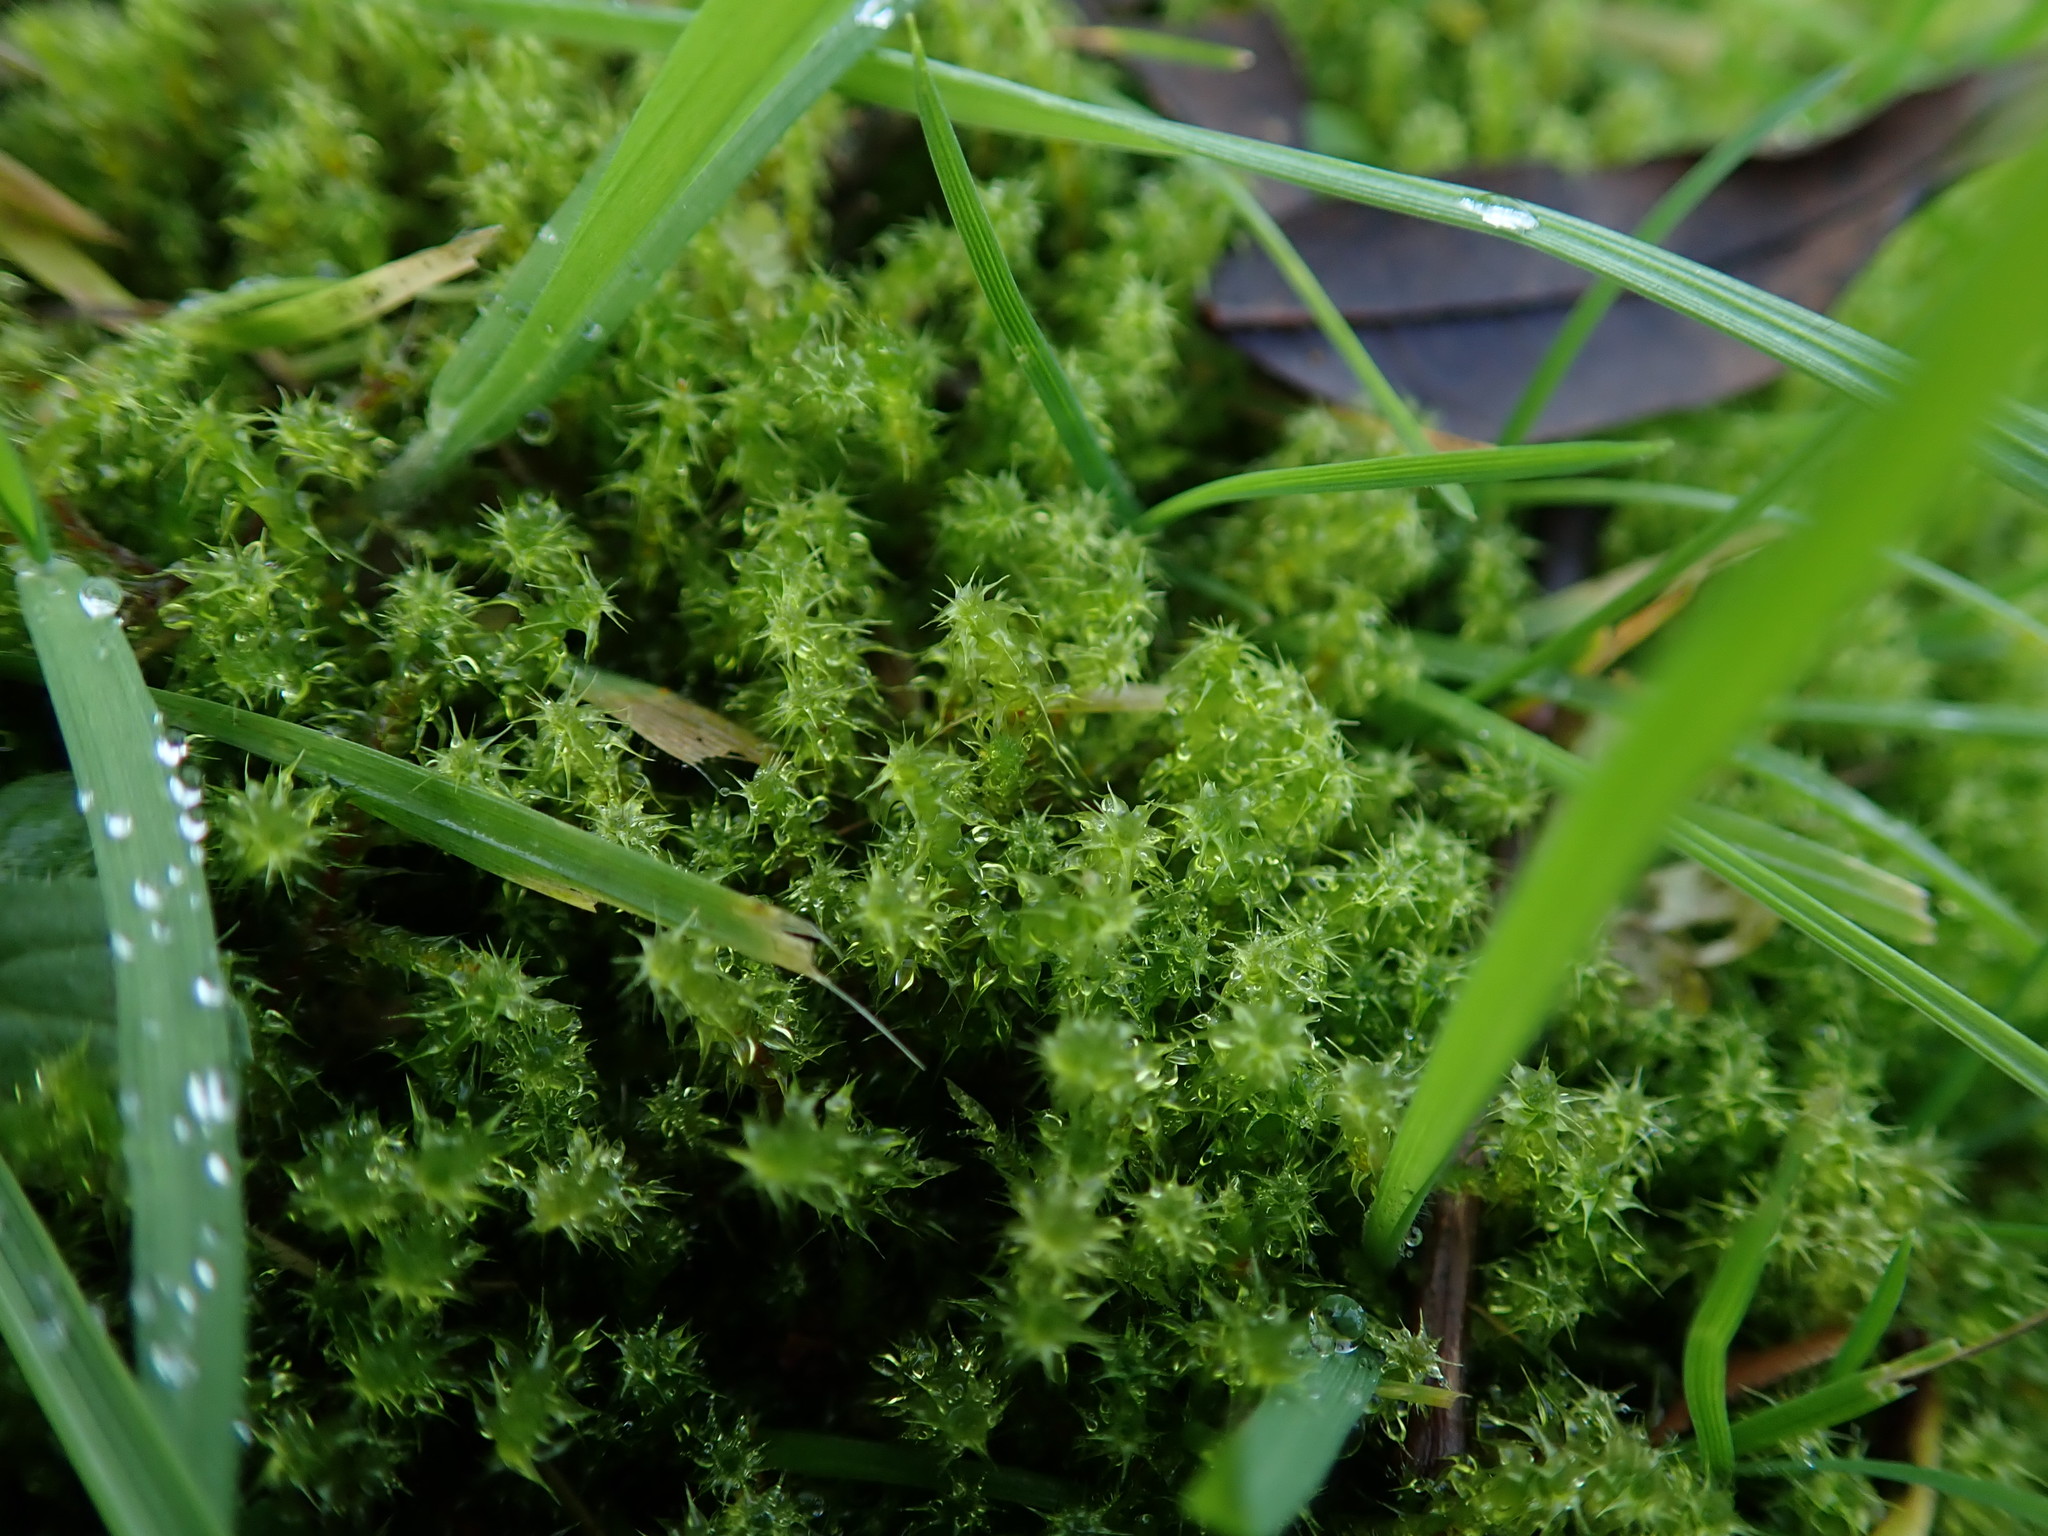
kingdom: Plantae
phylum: Bryophyta
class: Bryopsida
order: Hypnales
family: Hylocomiaceae
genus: Rhytidiadelphus
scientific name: Rhytidiadelphus squarrosus
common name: Springy turf-moss
